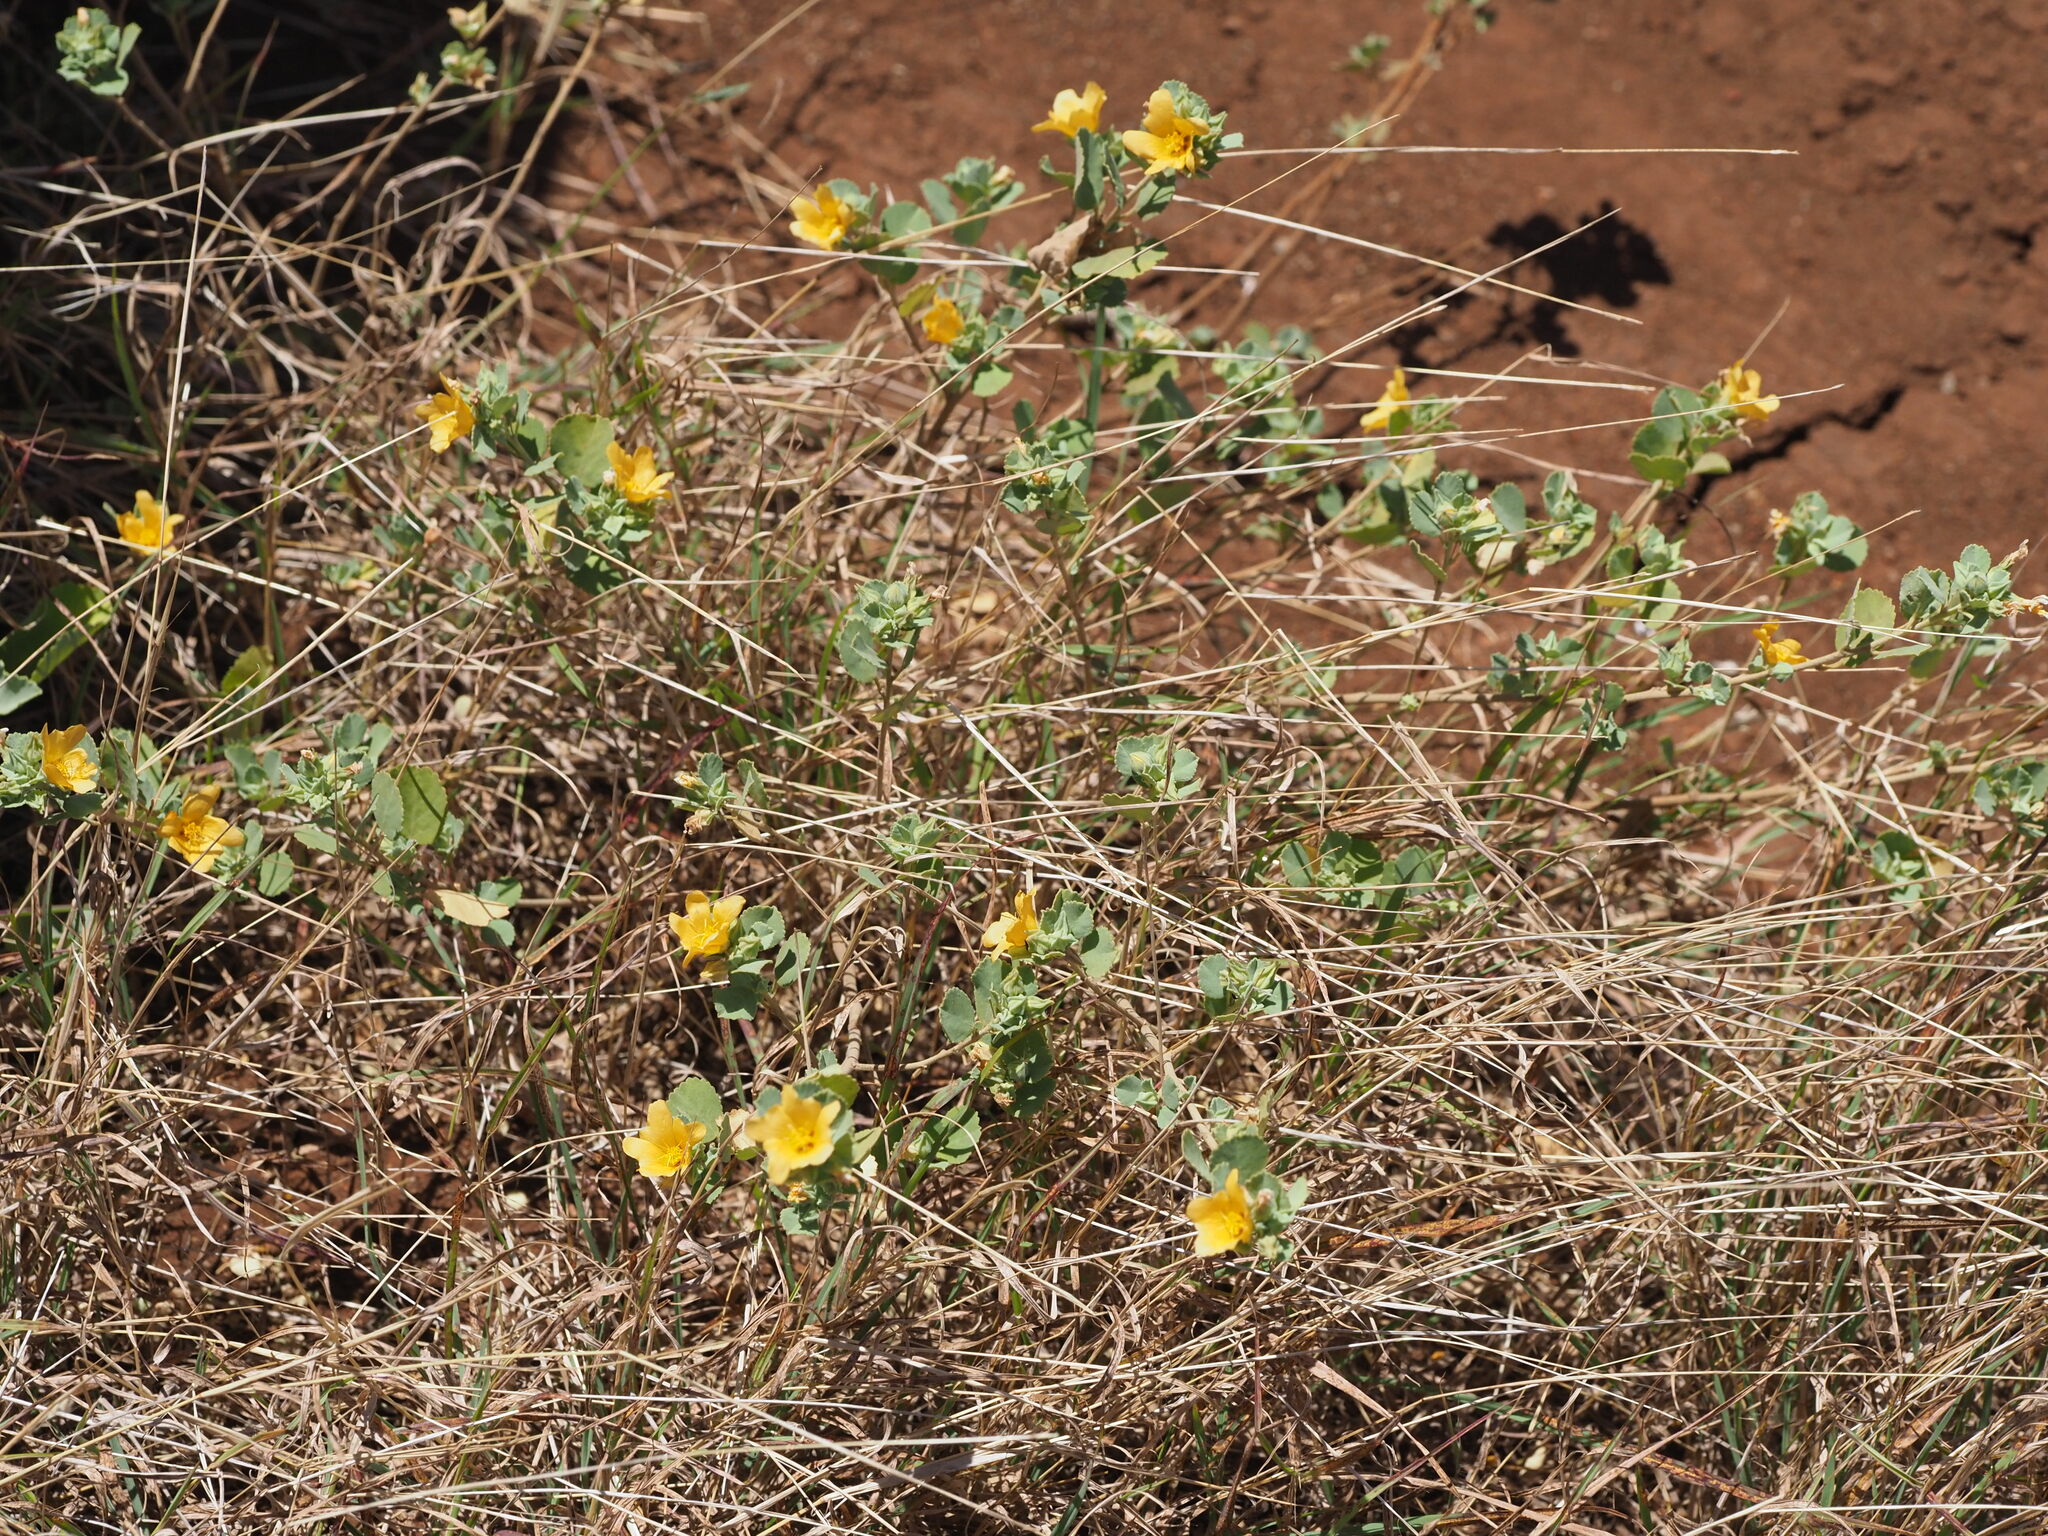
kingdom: Plantae
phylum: Tracheophyta
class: Magnoliopsida
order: Malvales
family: Malvaceae
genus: Sida
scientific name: Sida fallax
